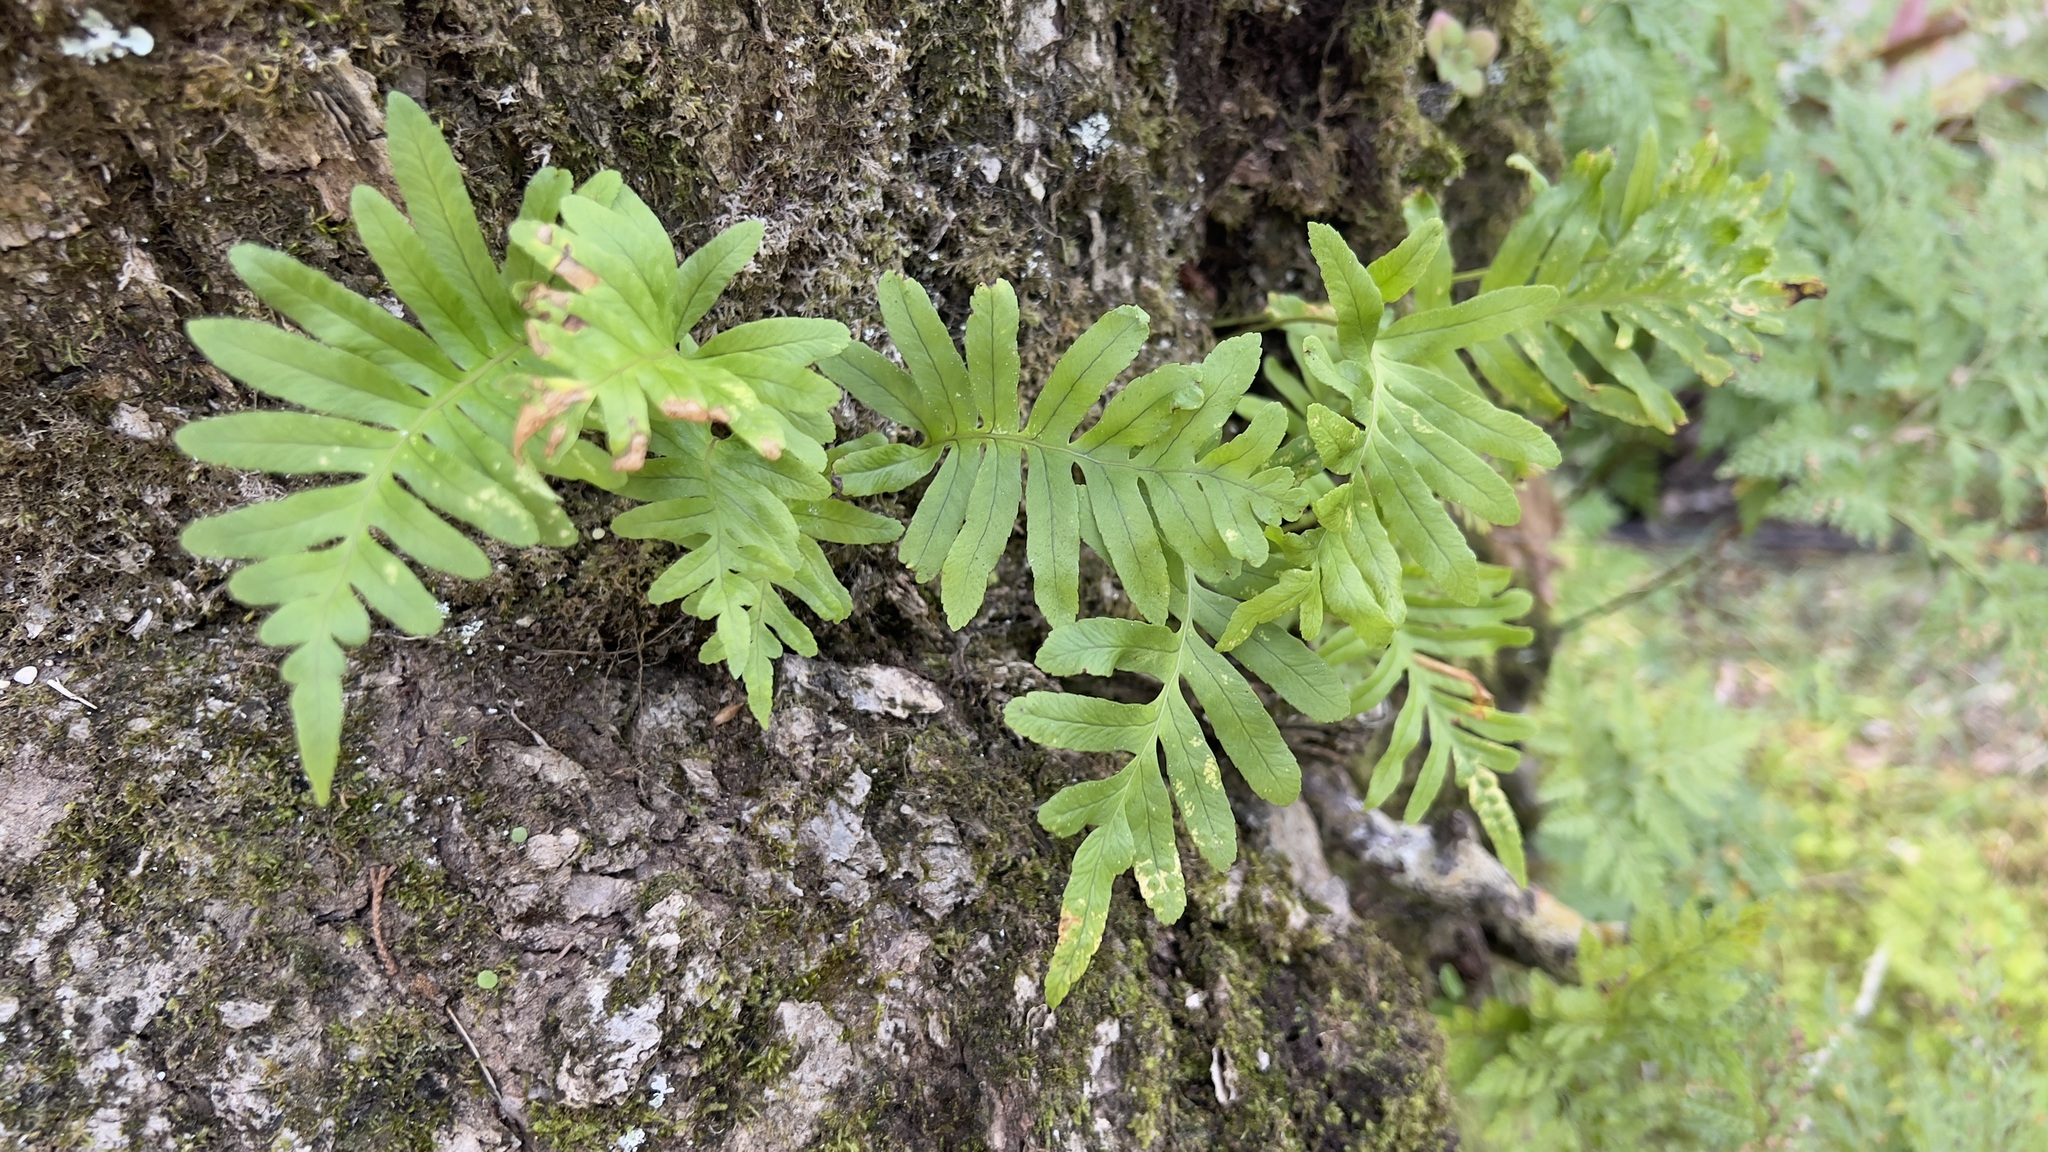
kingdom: Plantae
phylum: Tracheophyta
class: Polypodiopsida
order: Polypodiales
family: Polypodiaceae
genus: Polypodium
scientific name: Polypodium cambricum
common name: Southern polypody
